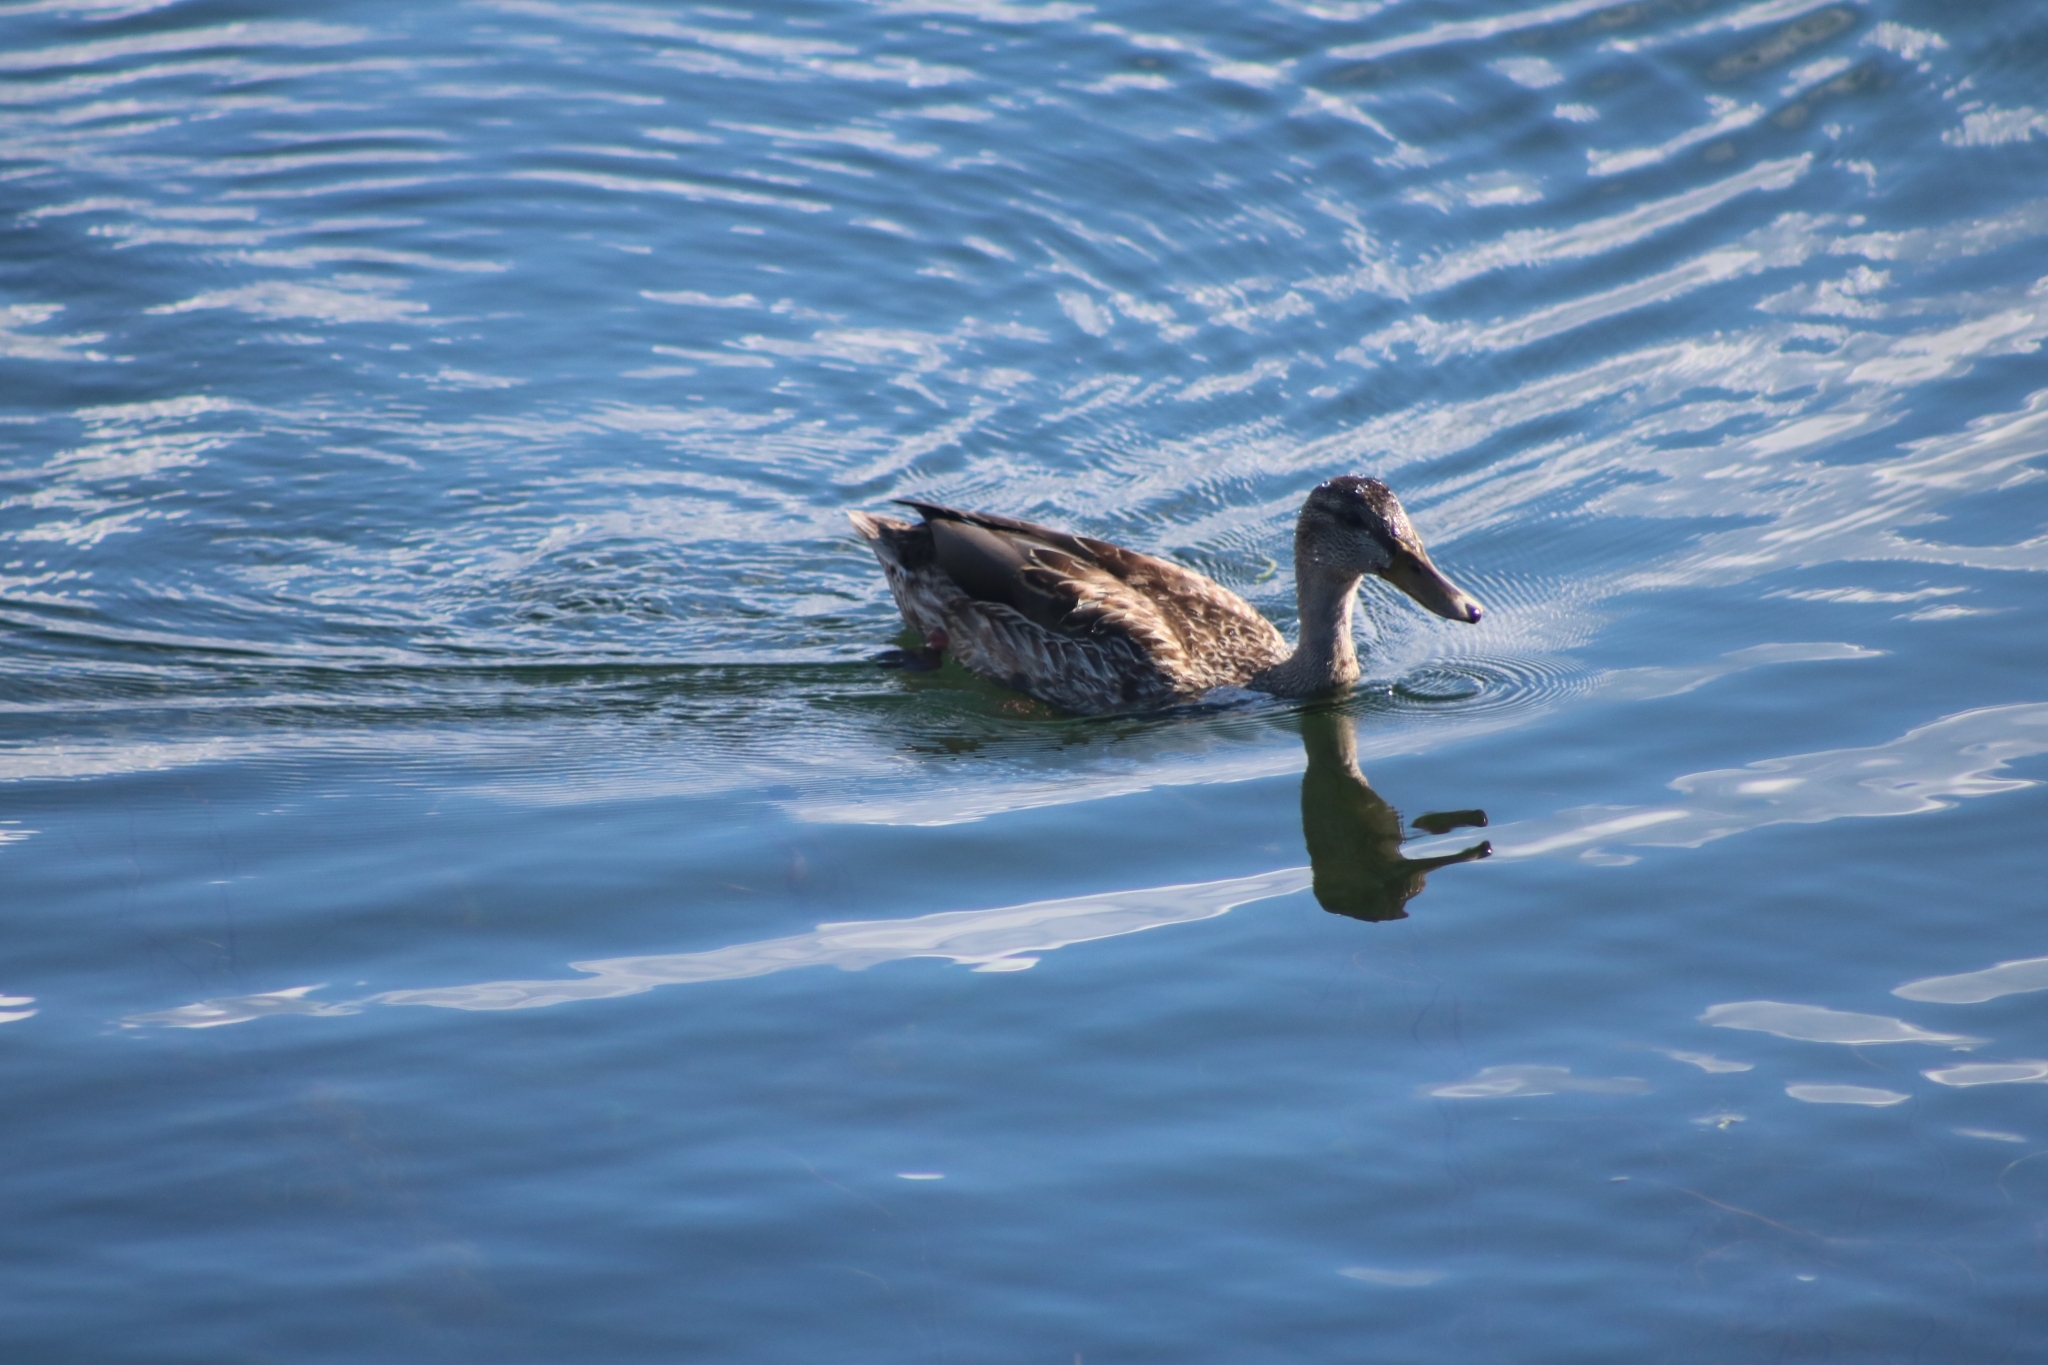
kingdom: Animalia
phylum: Chordata
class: Aves
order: Anseriformes
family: Anatidae
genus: Anas
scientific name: Anas platyrhynchos
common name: Mallard
